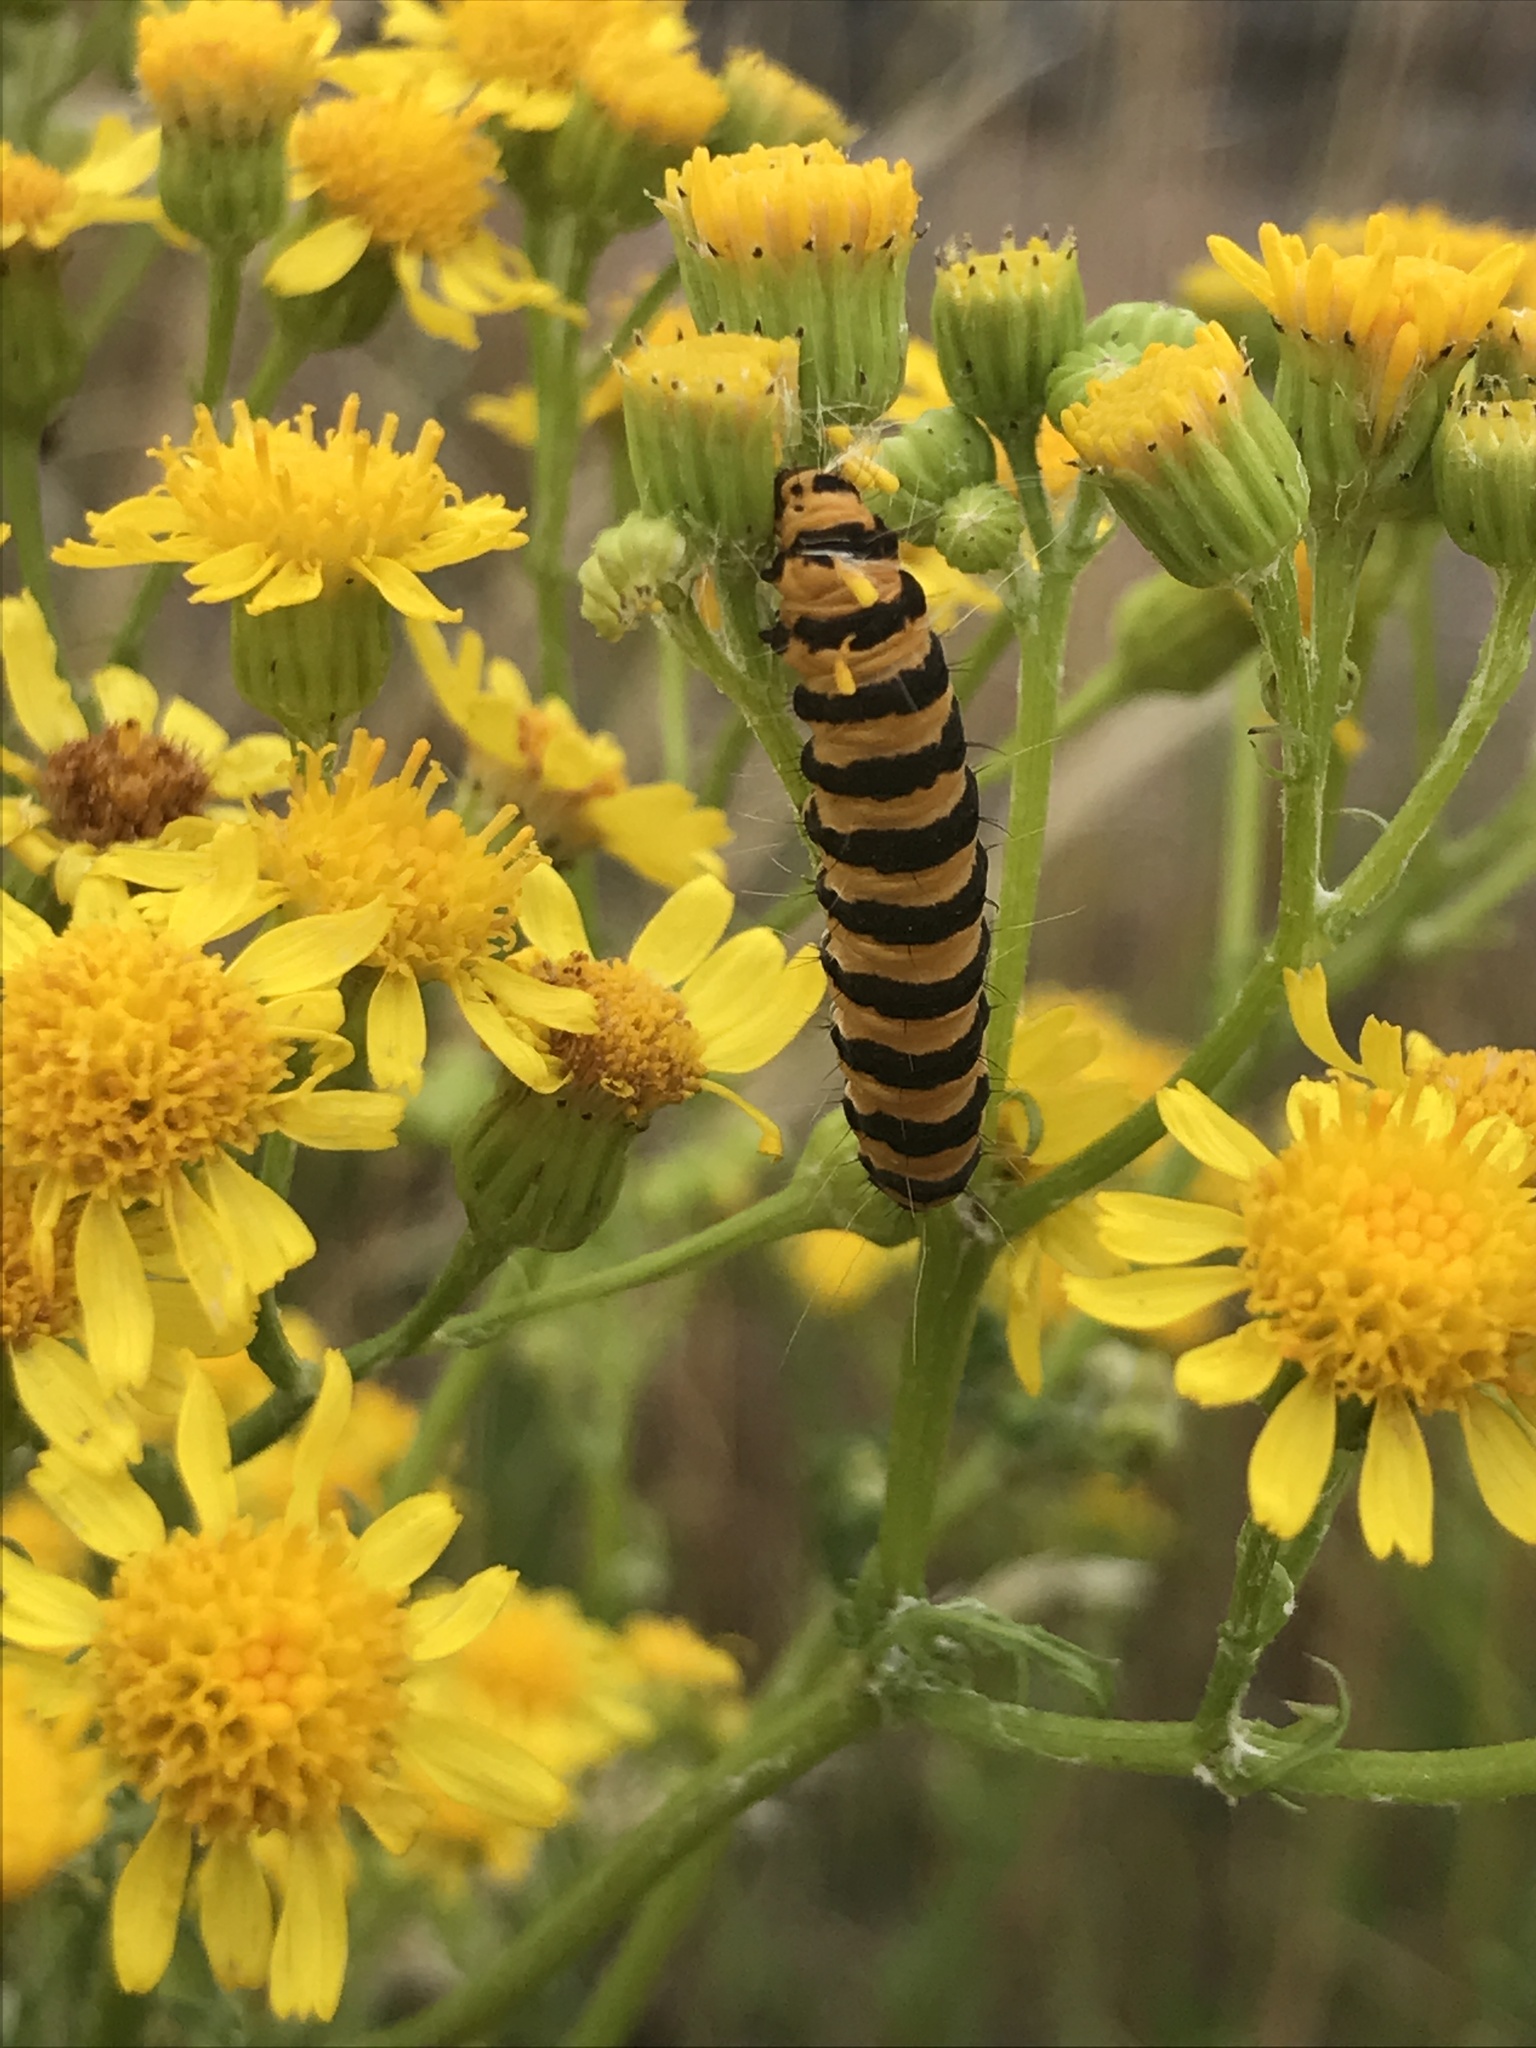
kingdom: Animalia
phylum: Arthropoda
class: Insecta
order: Lepidoptera
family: Erebidae
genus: Tyria
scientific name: Tyria jacobaeae
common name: Cinnabar
